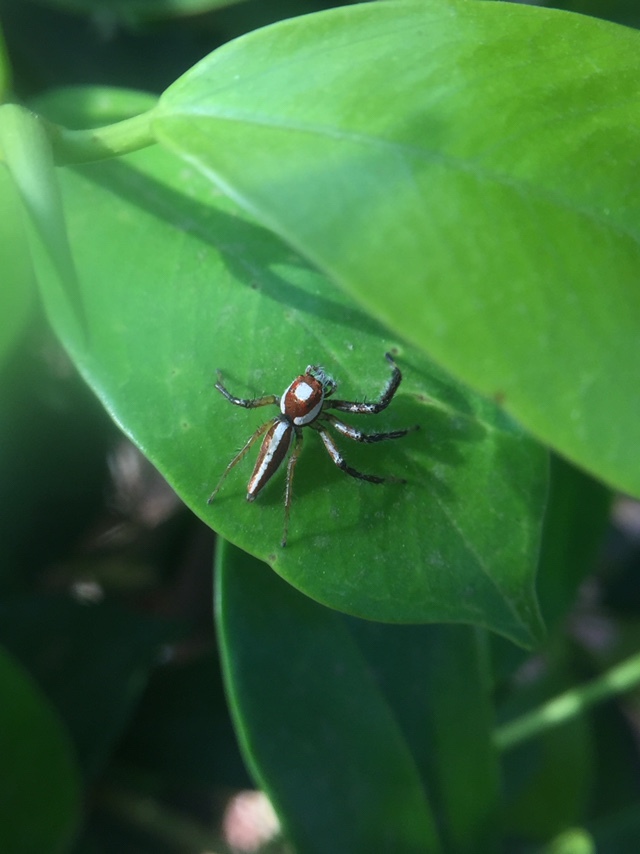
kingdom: Animalia
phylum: Arthropoda
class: Arachnida
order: Araneae
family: Salticidae
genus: Telamonia
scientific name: Telamonia dimidiata
